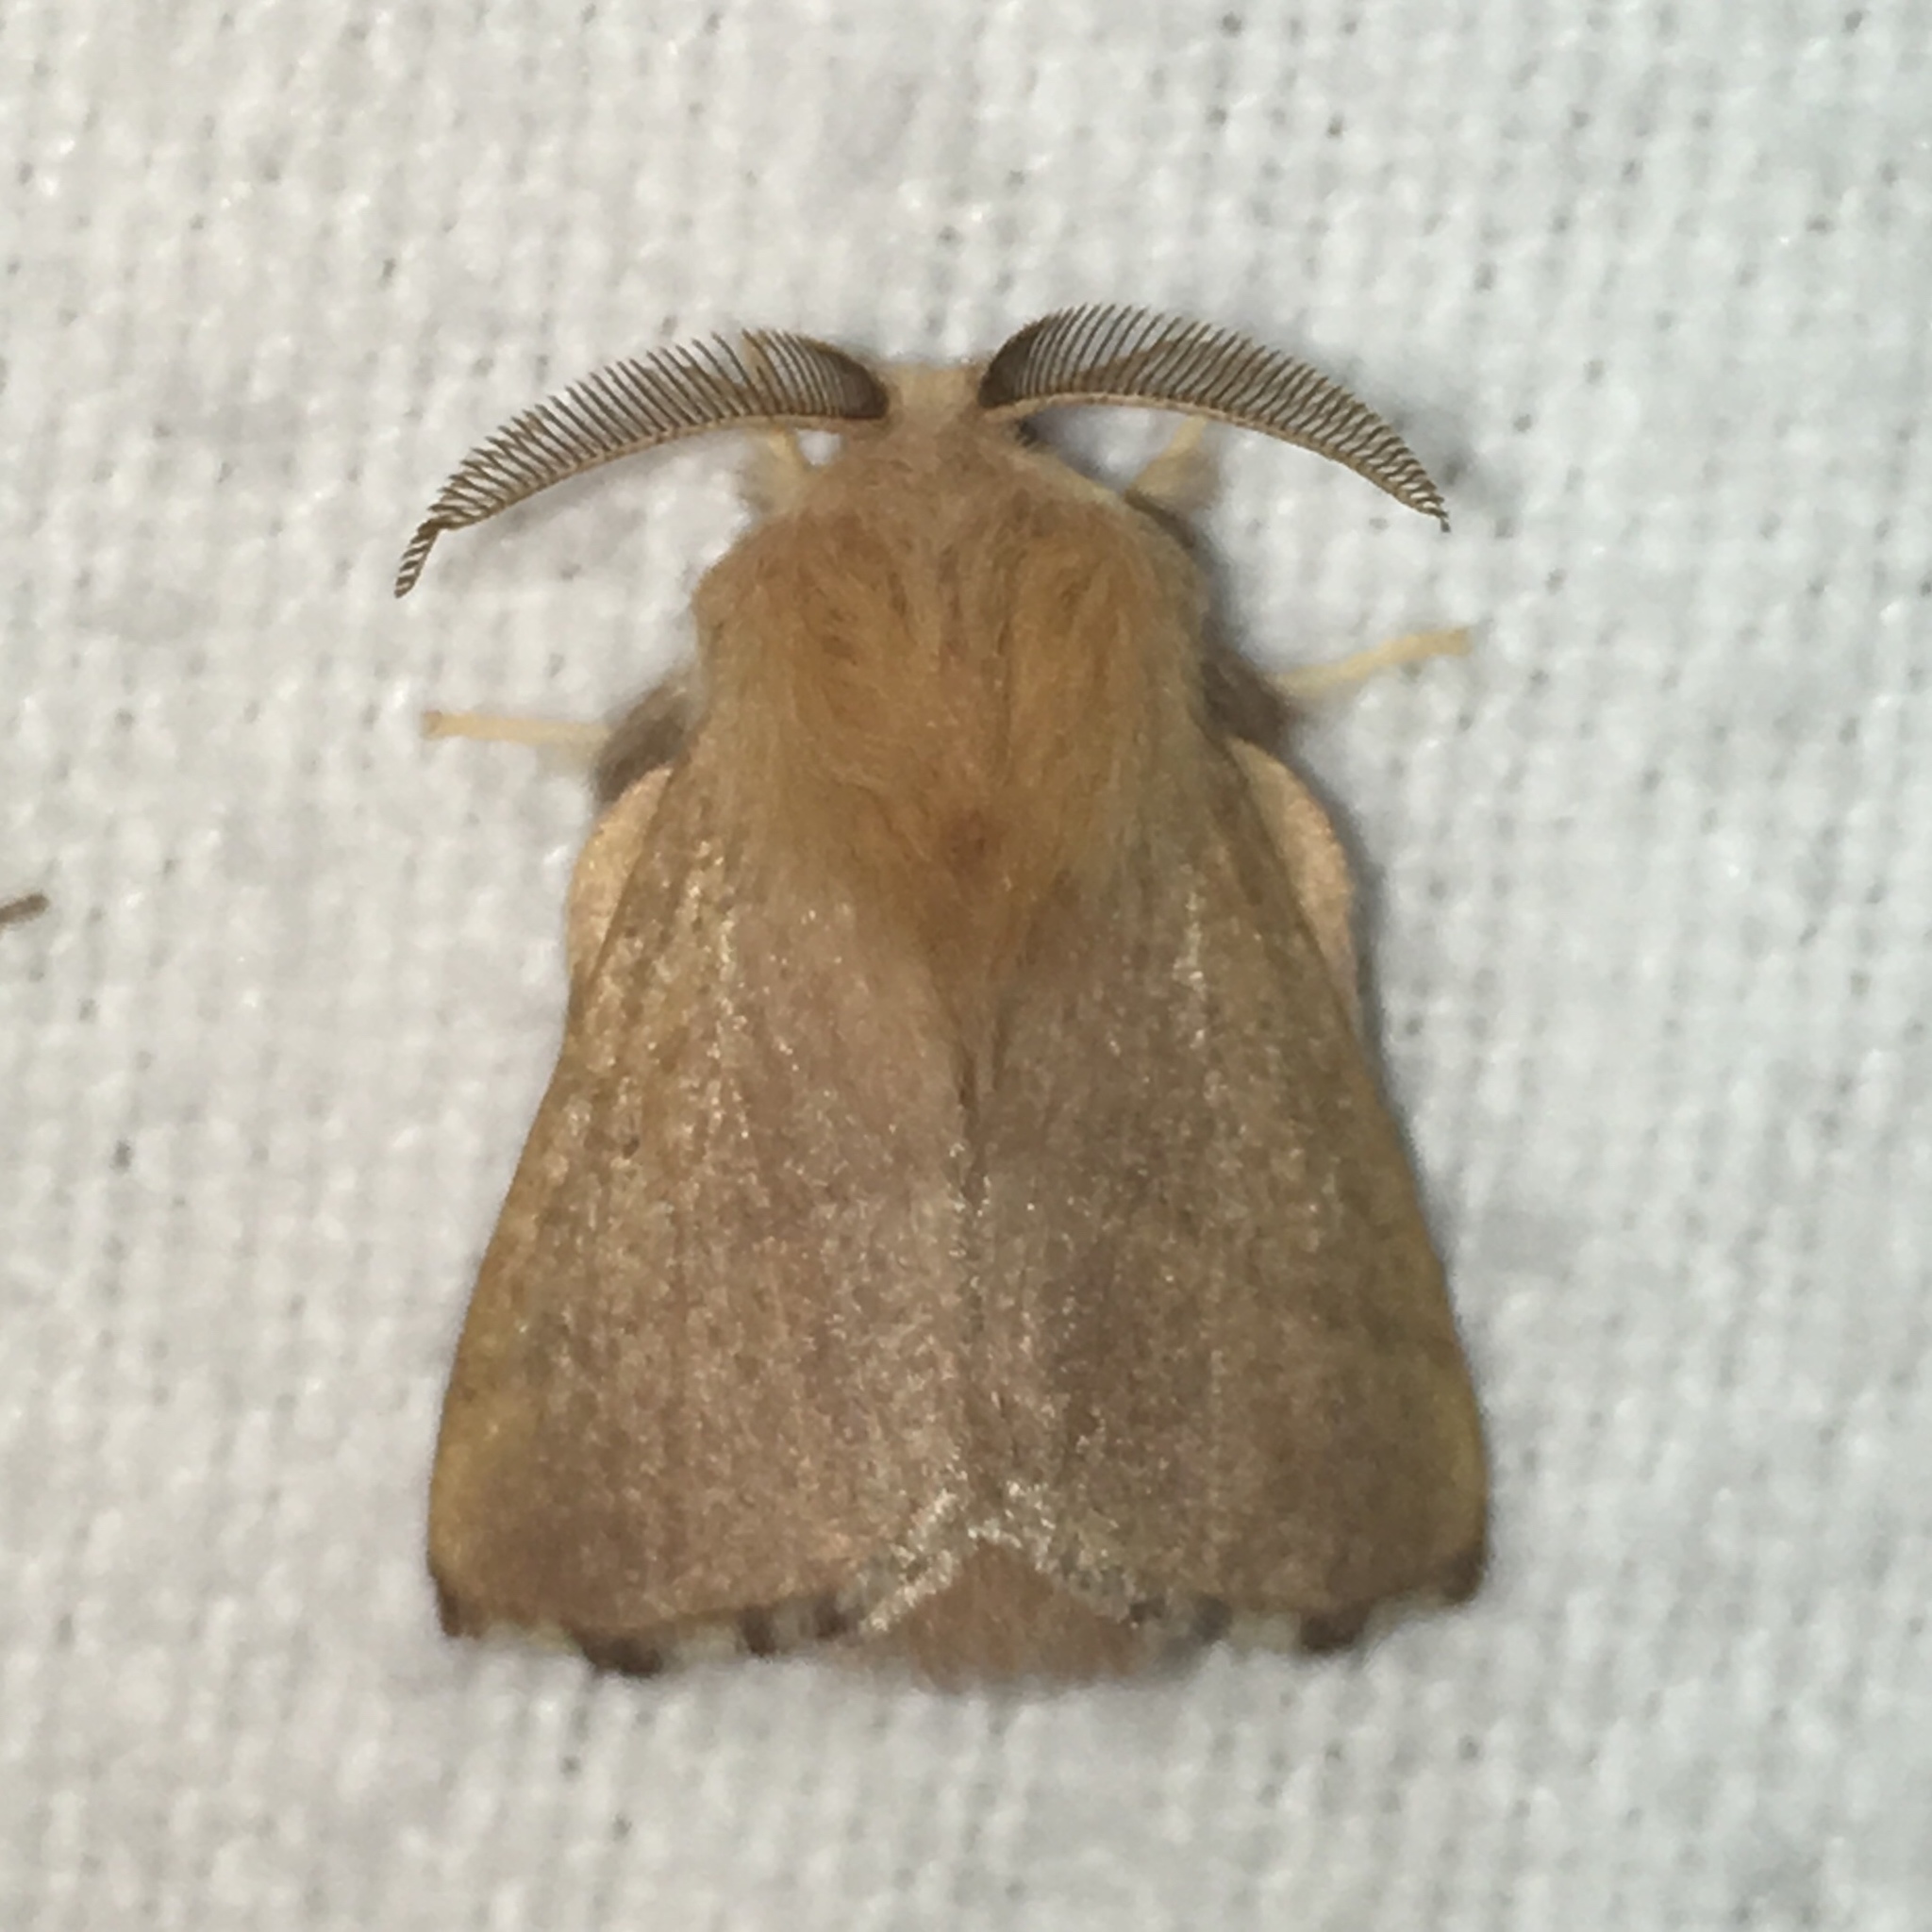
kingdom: Animalia
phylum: Arthropoda
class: Insecta
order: Lepidoptera
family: Lasiocampidae
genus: Malacosoma
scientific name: Malacosoma disstria
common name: Forest tent caterpillar
